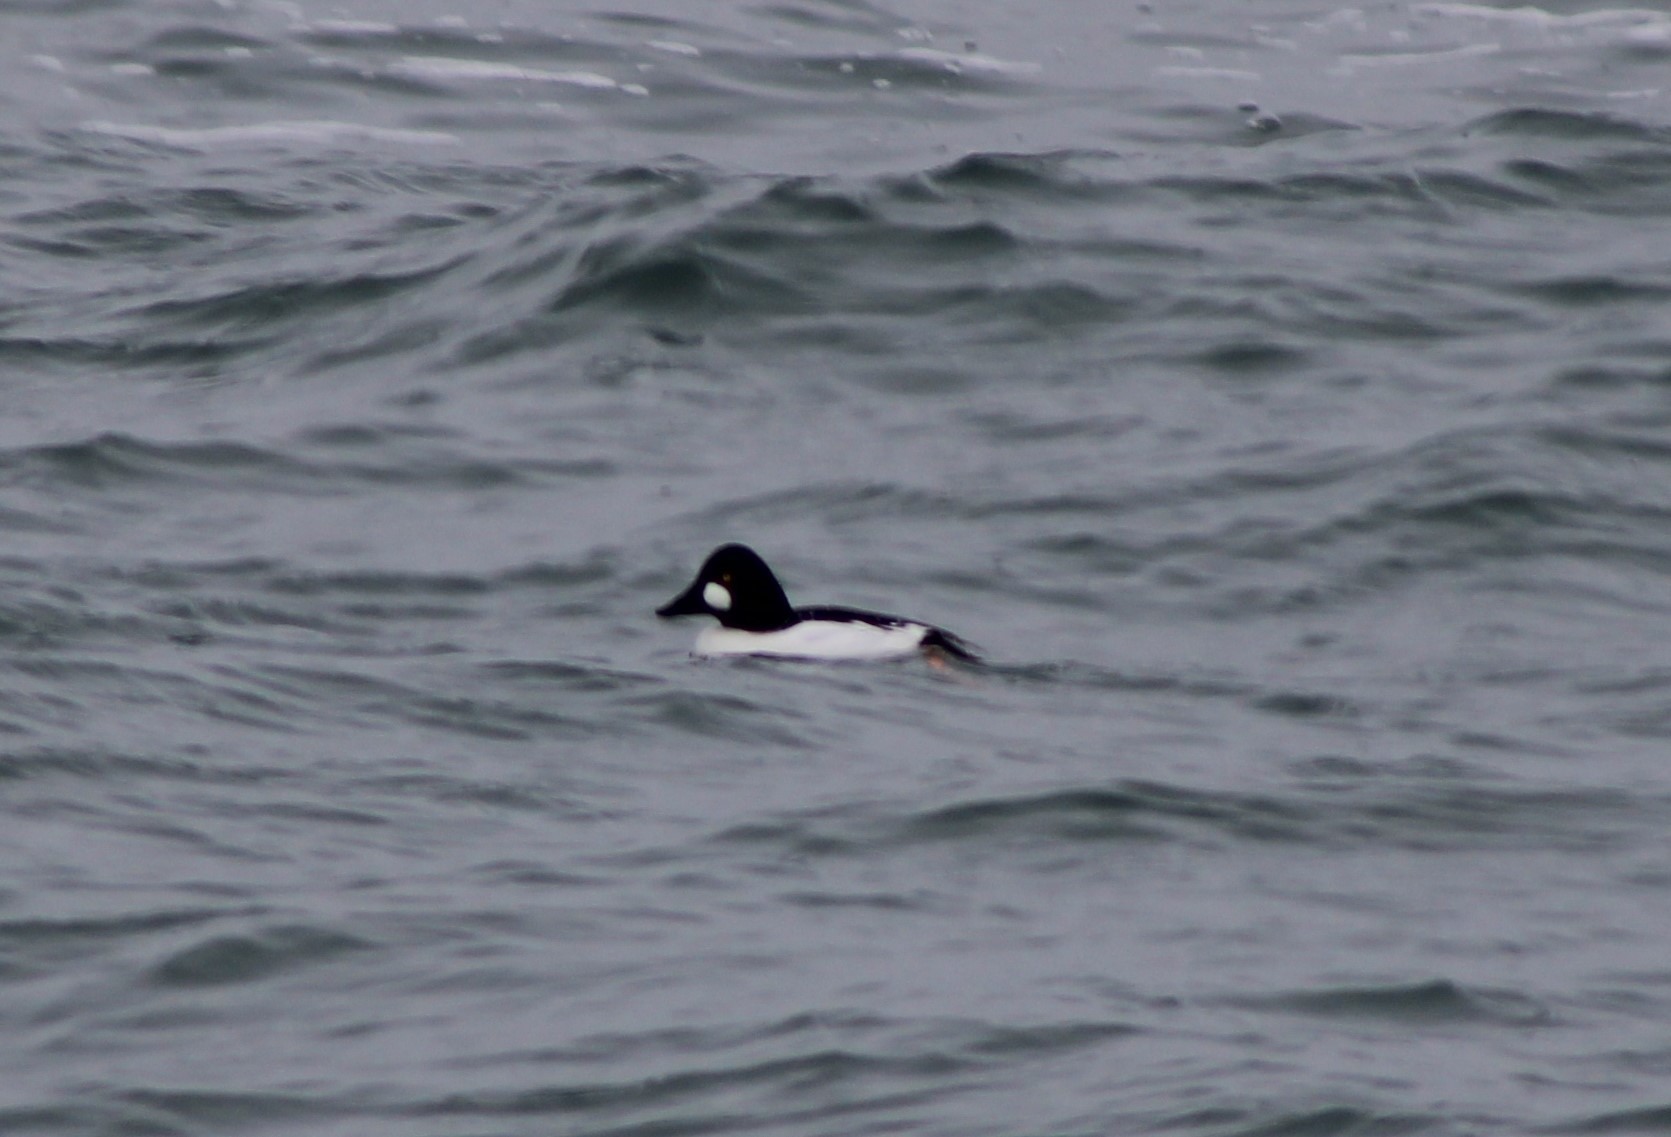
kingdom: Animalia
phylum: Chordata
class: Aves
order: Anseriformes
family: Anatidae
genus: Bucephala
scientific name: Bucephala clangula
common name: Common goldeneye
